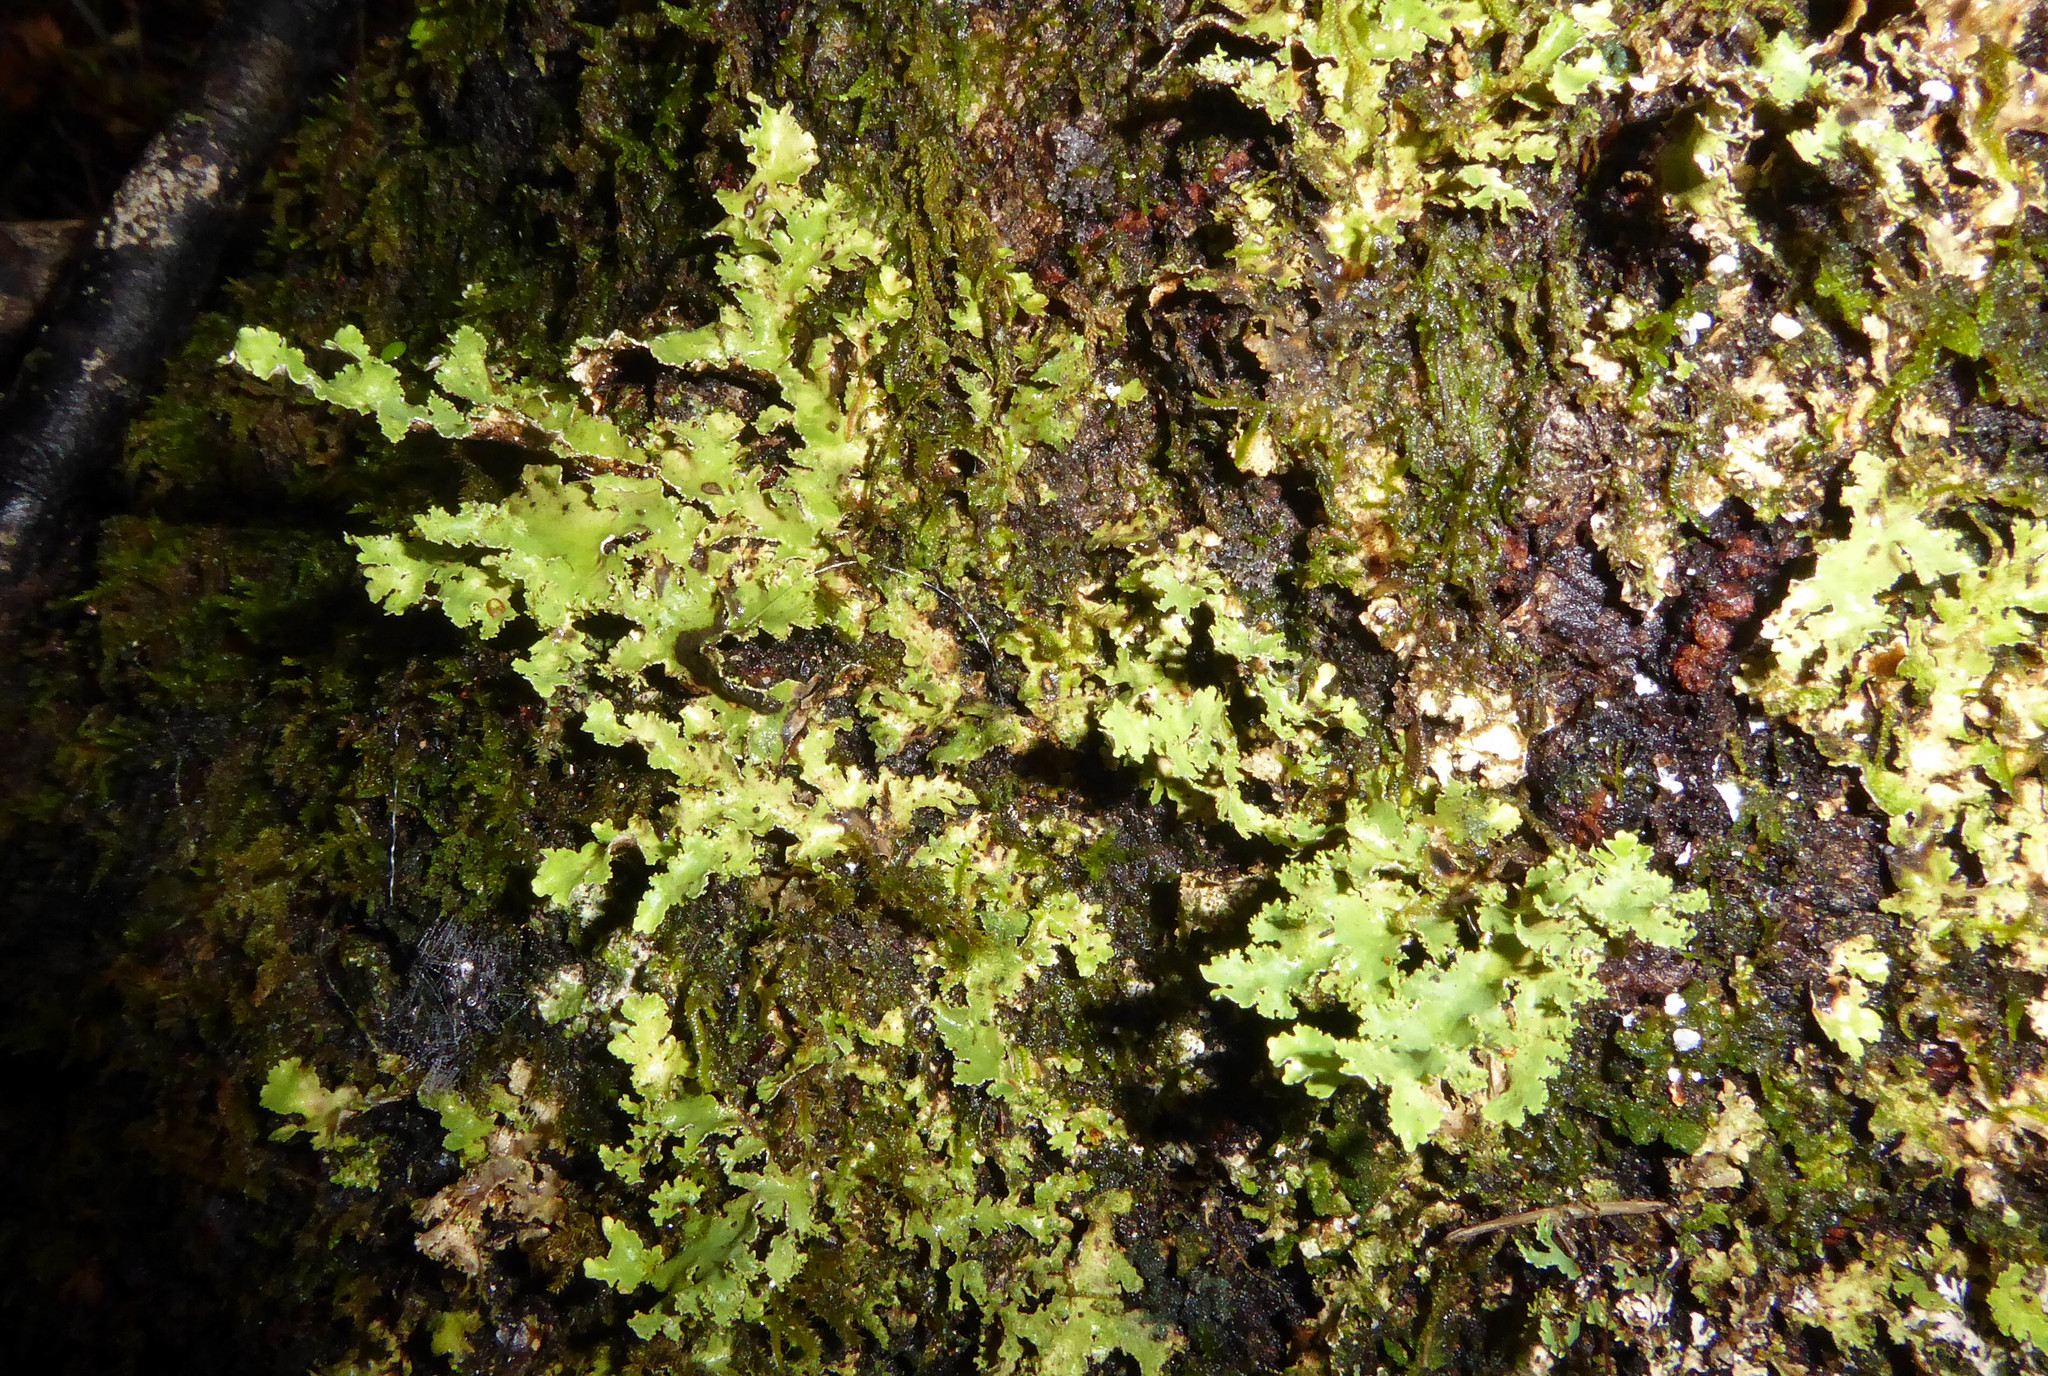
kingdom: Fungi
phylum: Ascomycota
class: Lecanoromycetes
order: Peltigerales
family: Lobariaceae
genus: Pseudocyphellaria
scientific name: Pseudocyphellaria glabra
